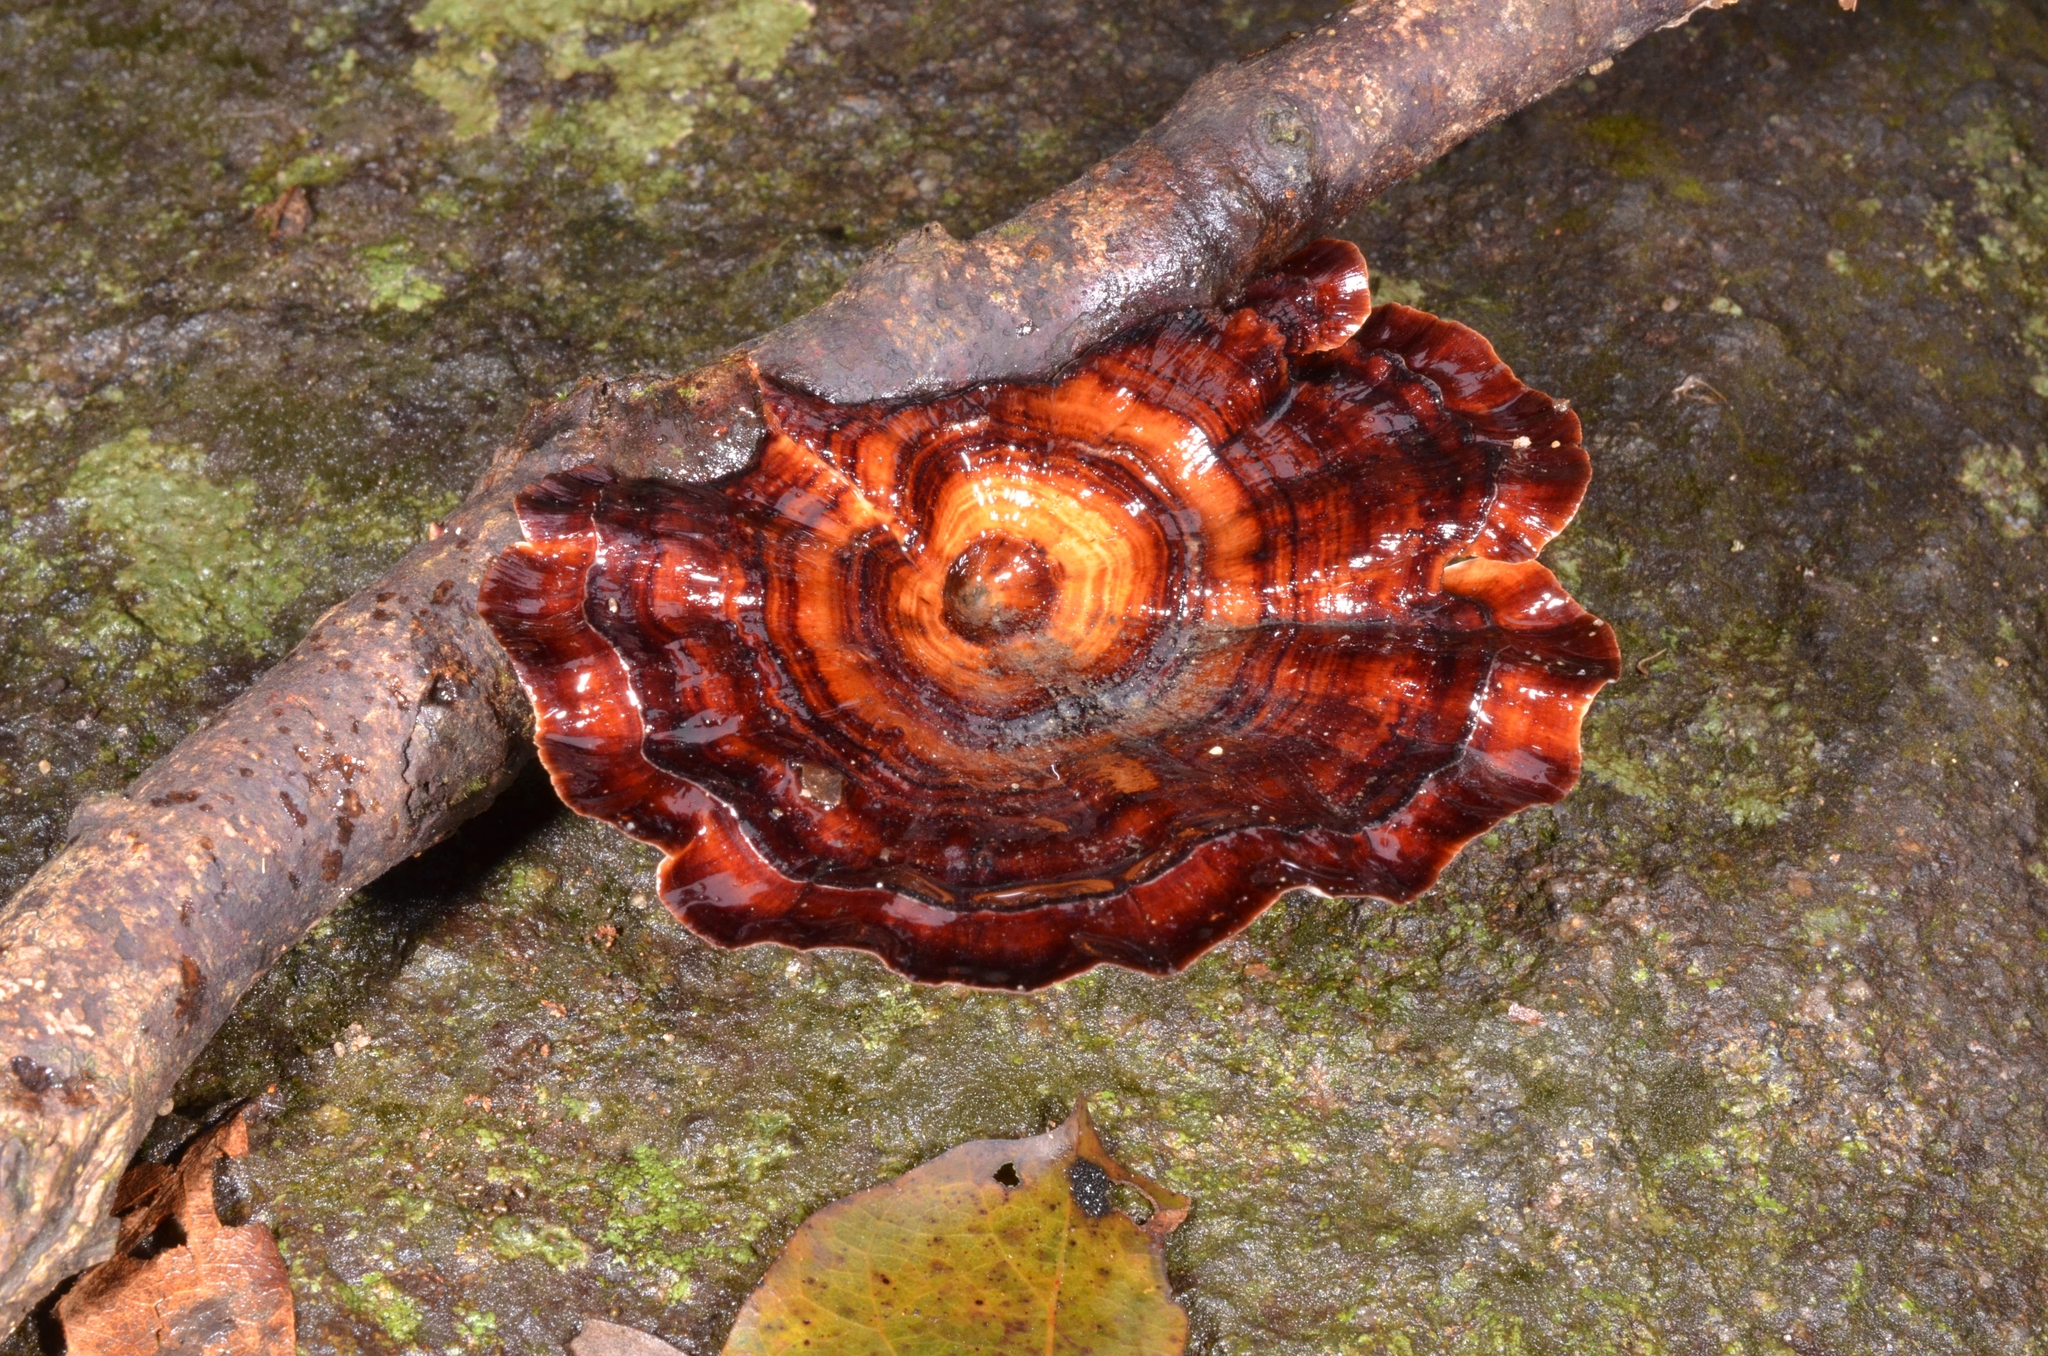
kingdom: Fungi
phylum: Basidiomycota
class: Agaricomycetes
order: Polyporales
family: Polyporaceae
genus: Microporus
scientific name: Microporus xanthopus
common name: Yellow-stemmed micropore
